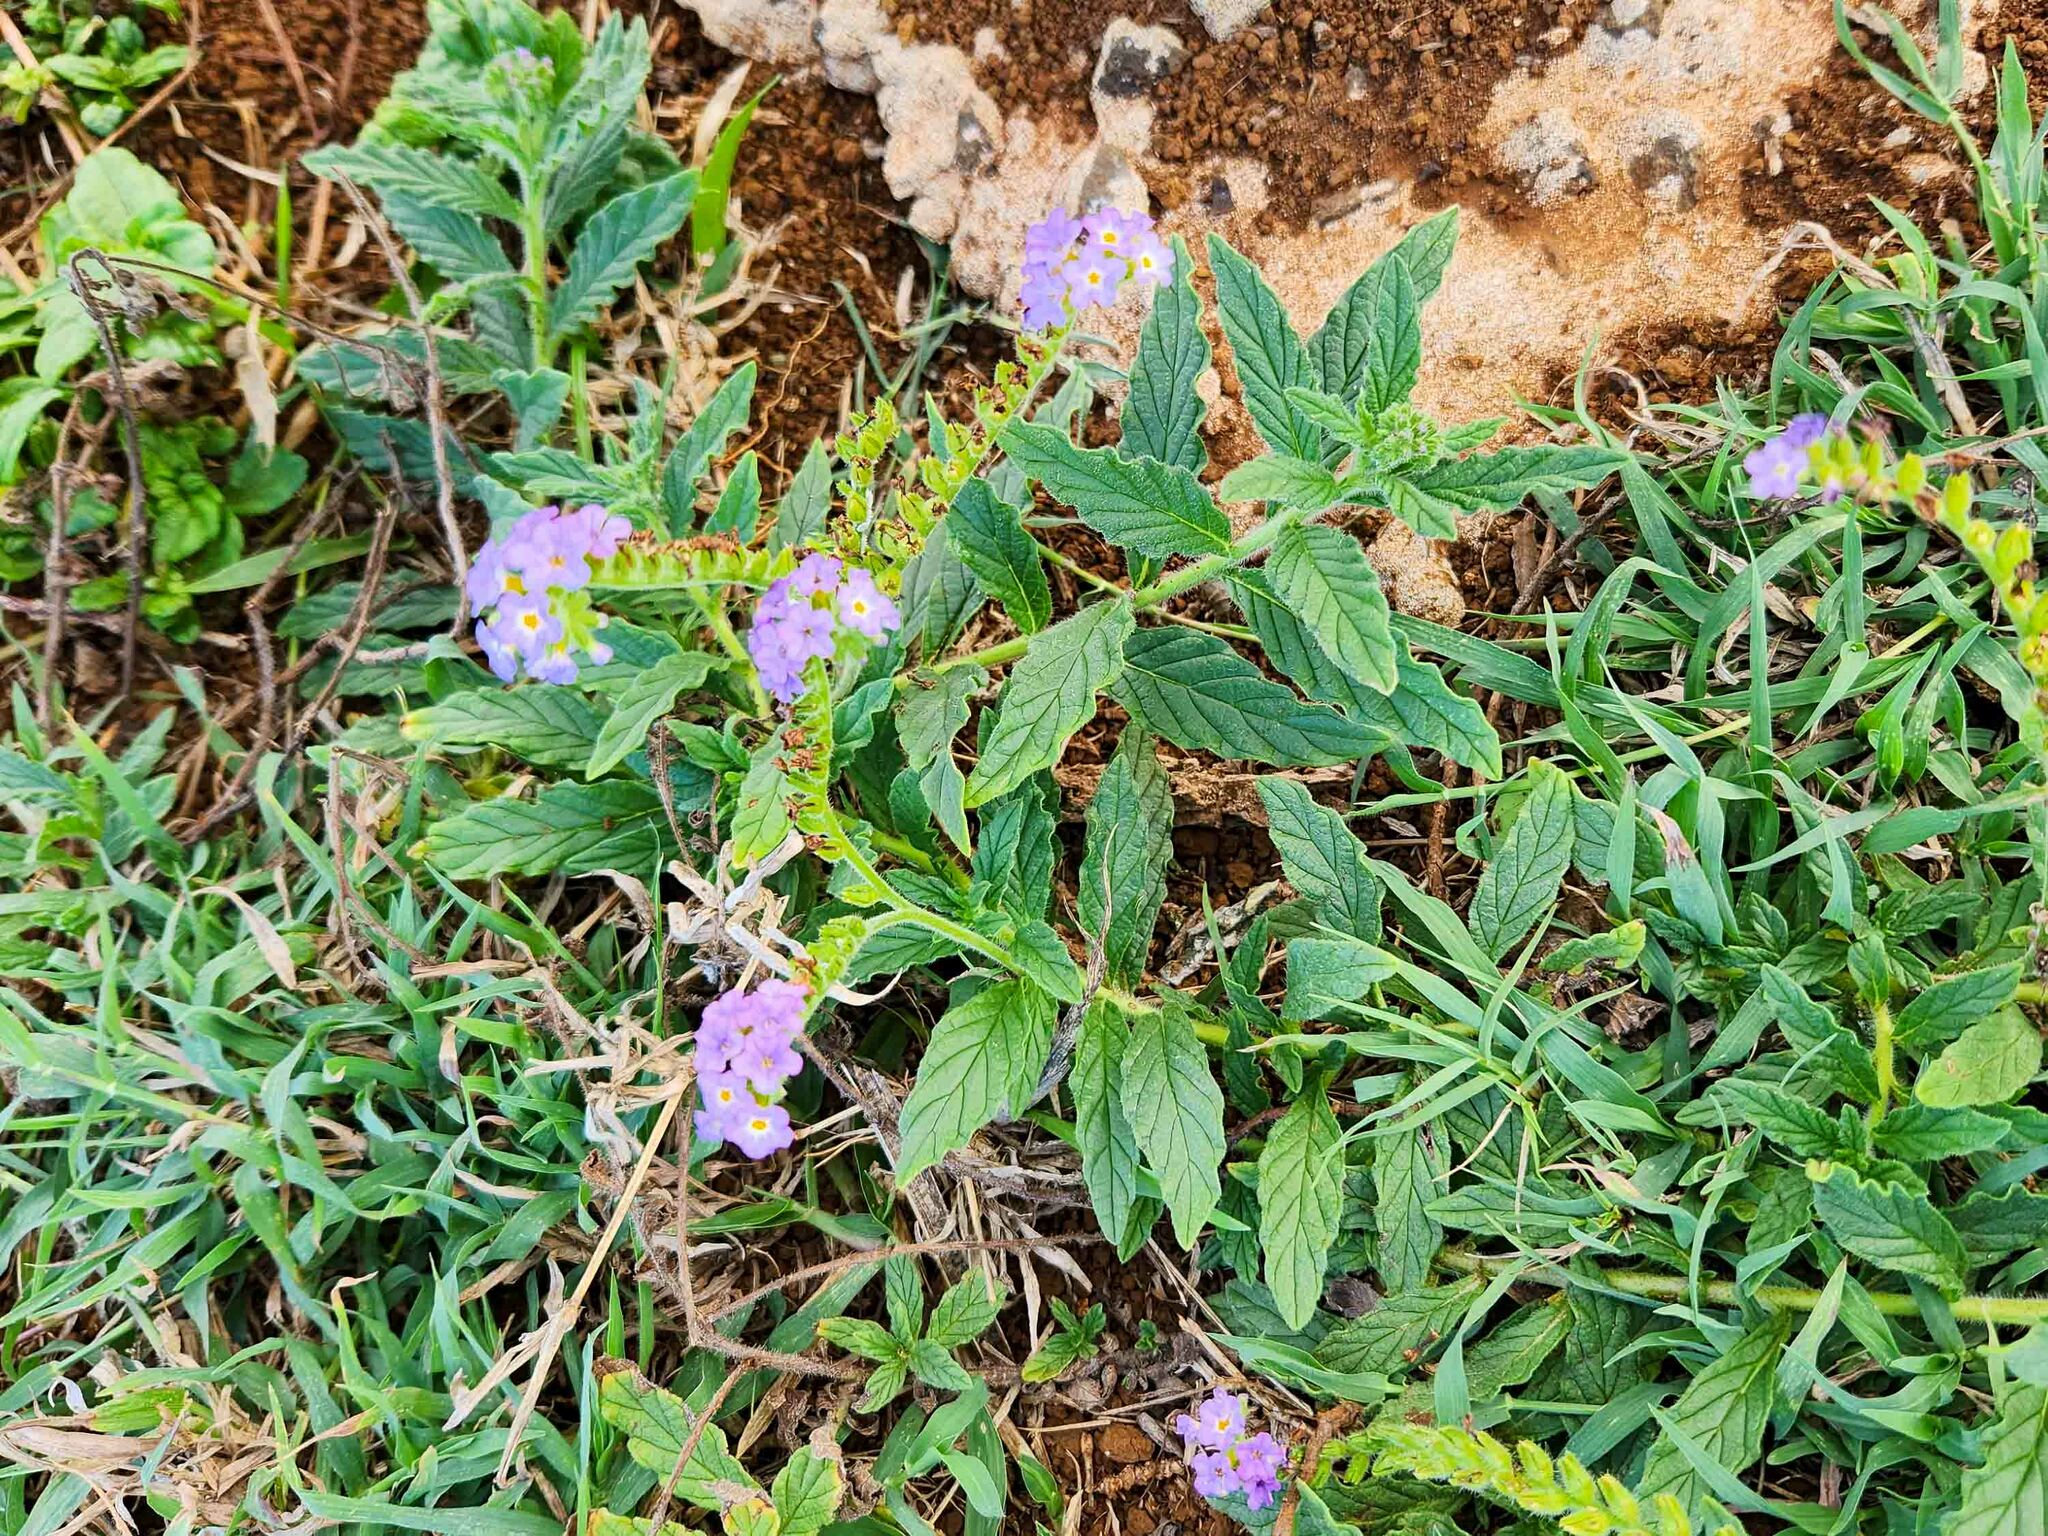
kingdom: Plantae
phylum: Tracheophyta
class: Magnoliopsida
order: Boraginales
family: Heliotropiaceae
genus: Heliotropium
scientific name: Heliotropium amplexicaule
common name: Clasping heliotrope
